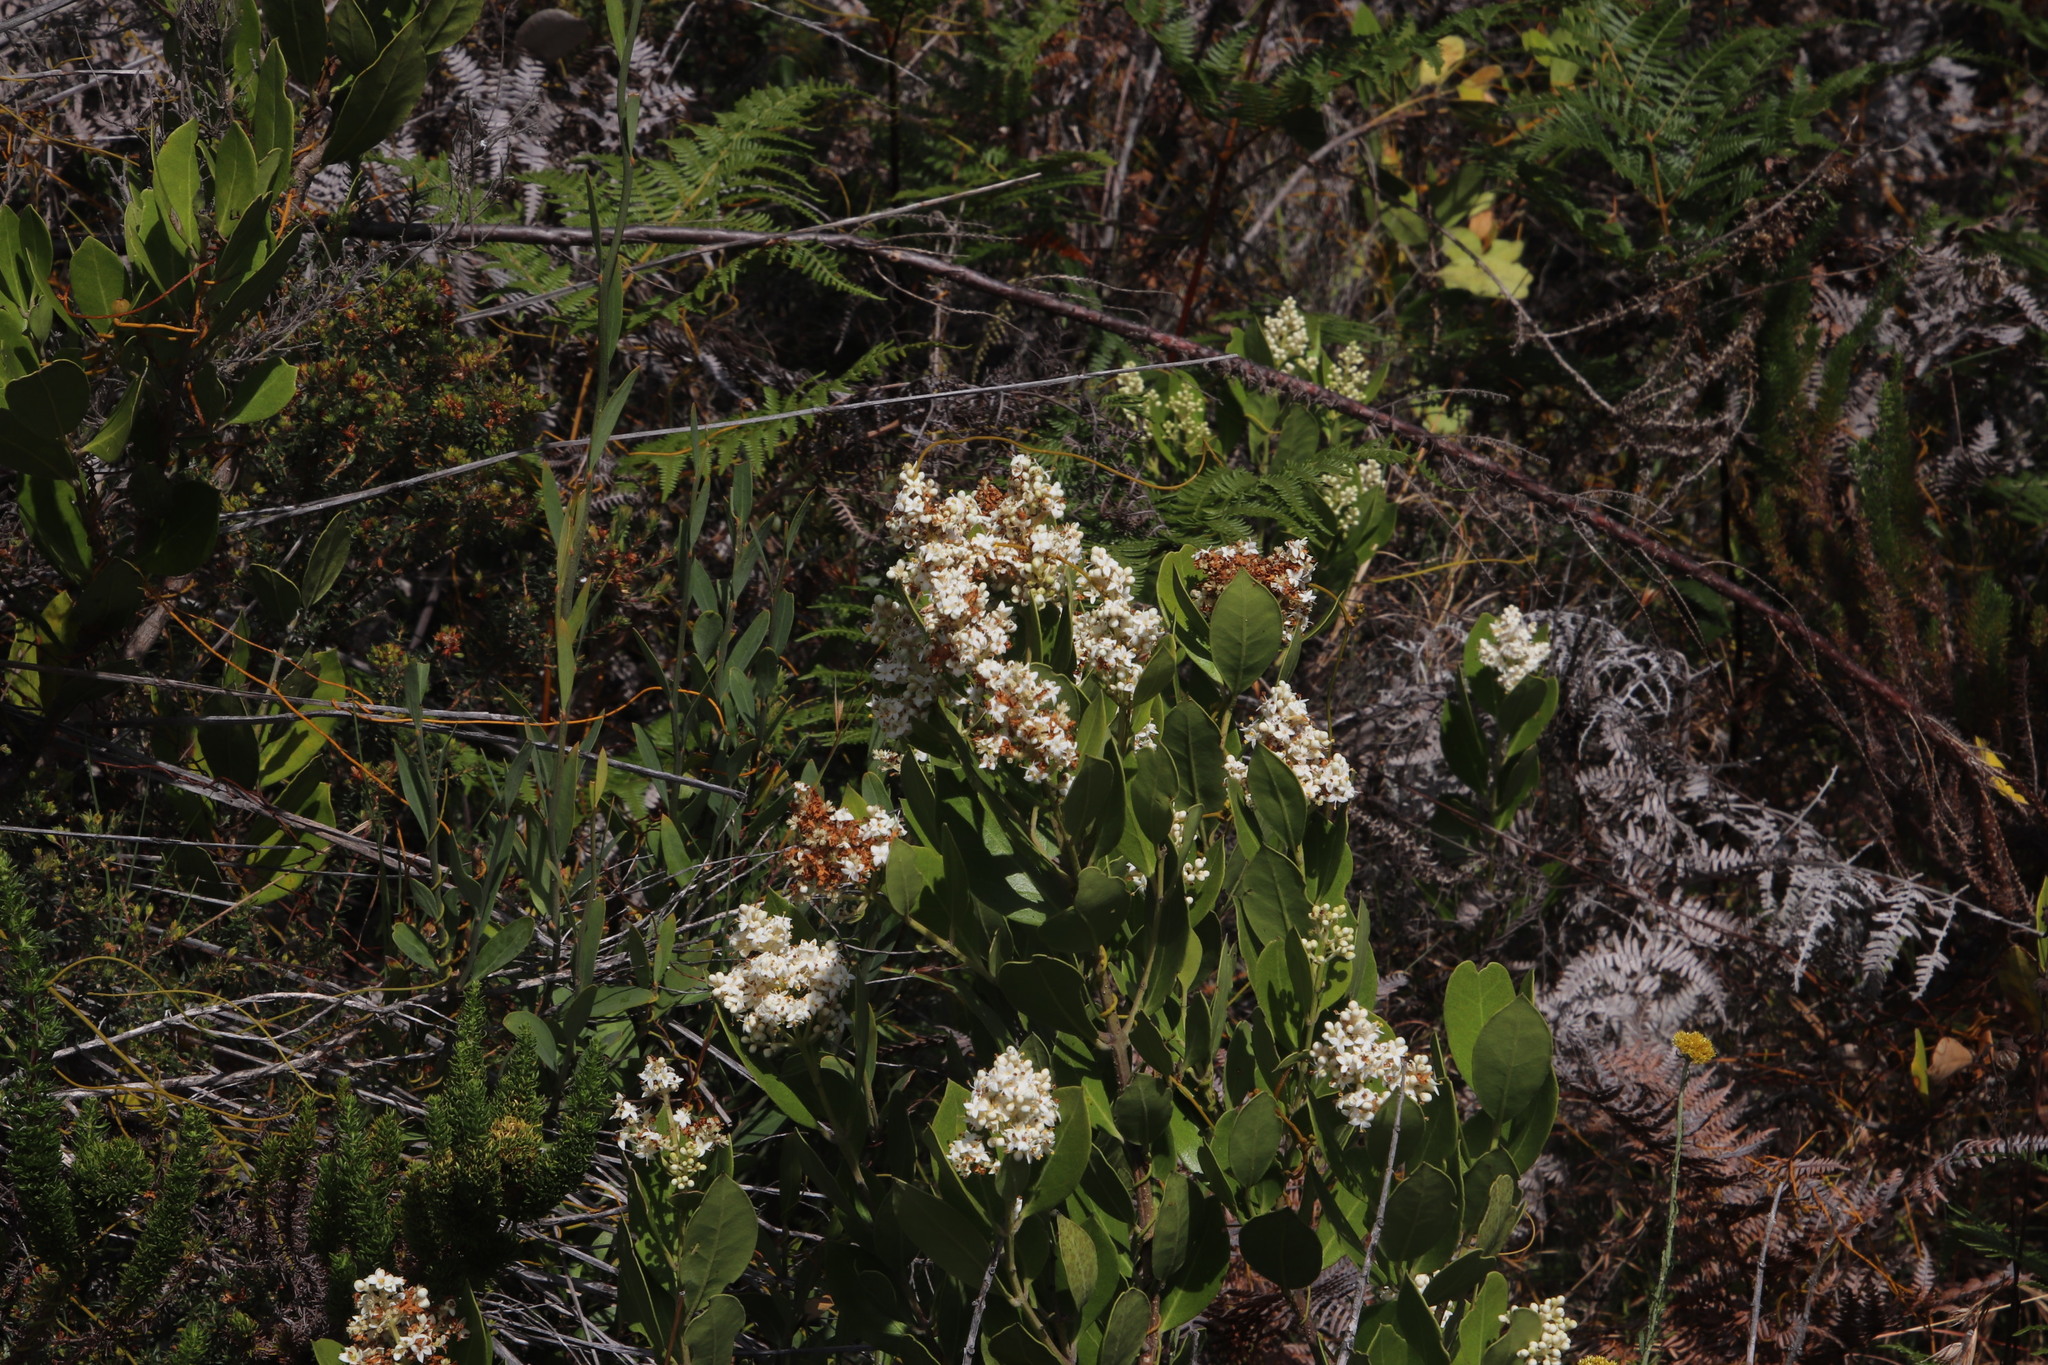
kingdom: Plantae
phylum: Tracheophyta
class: Magnoliopsida
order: Lamiales
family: Oleaceae
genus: Olea
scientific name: Olea capensis
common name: Black ironwood
